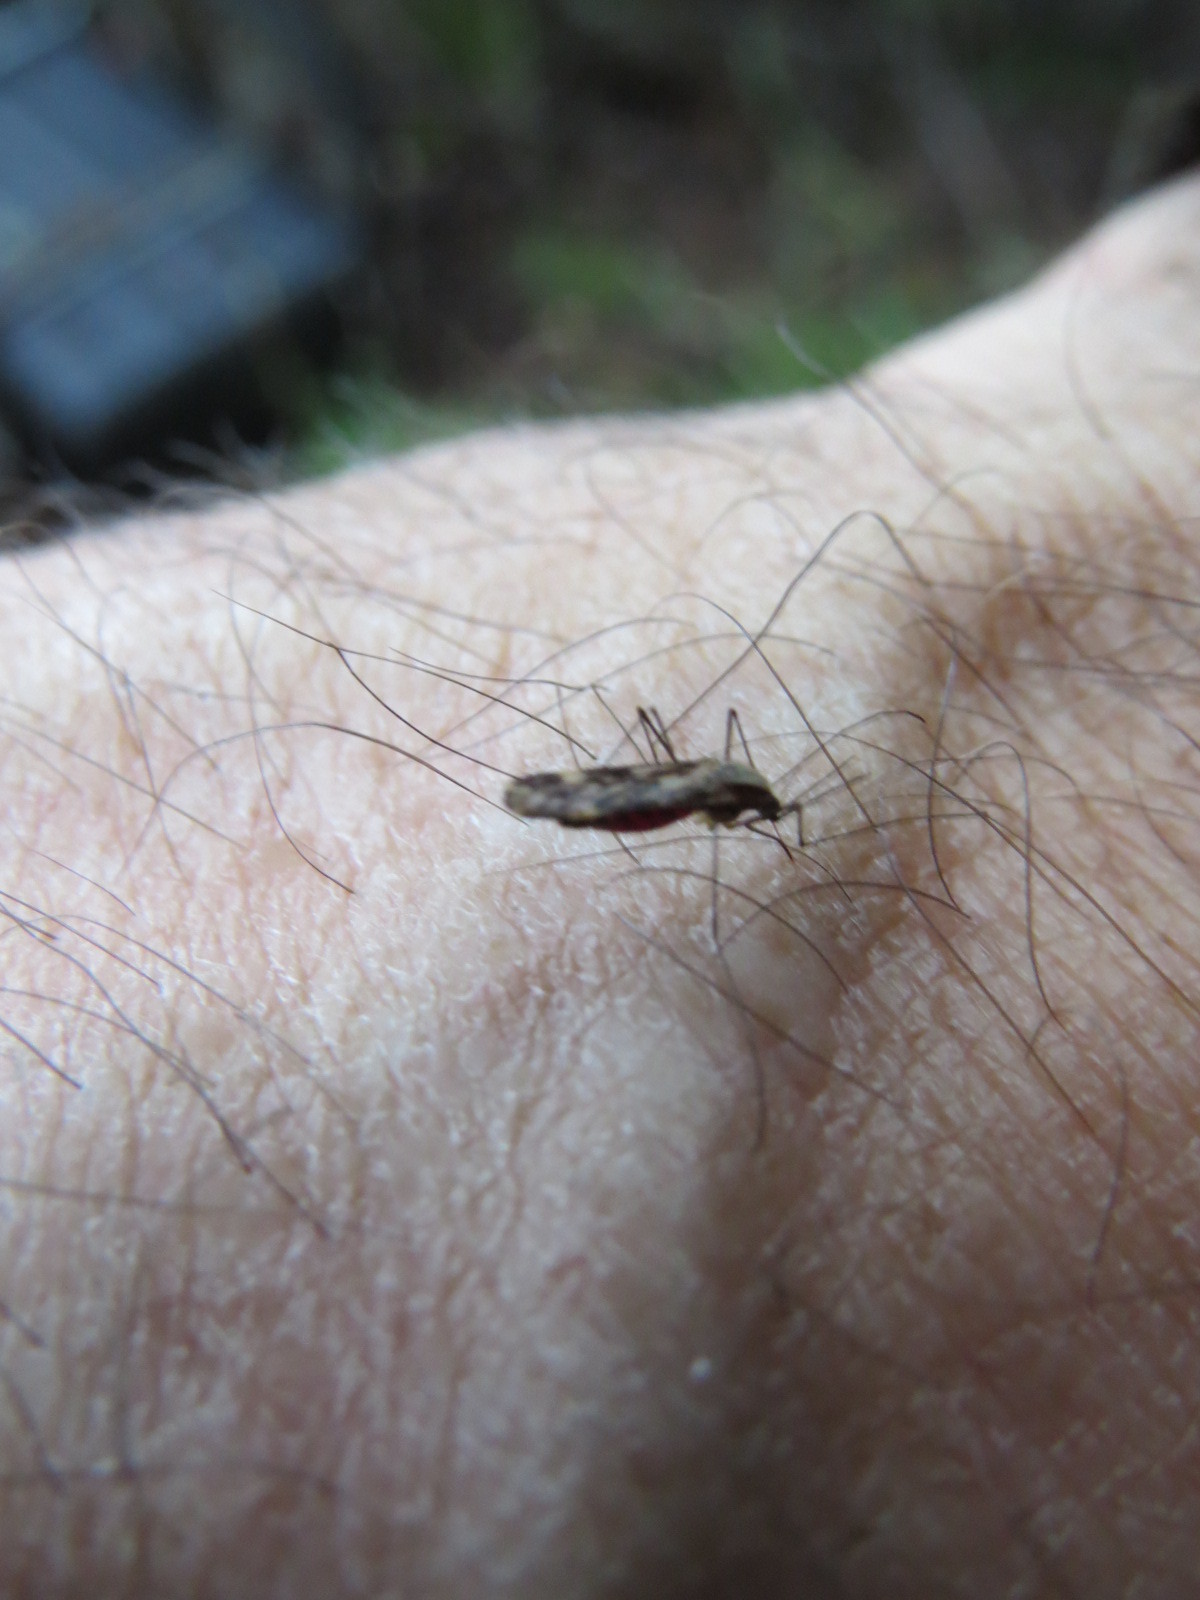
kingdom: Animalia
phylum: Arthropoda
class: Insecta
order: Diptera
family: Culicidae
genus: Anopheles
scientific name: Anopheles punctipennis
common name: Woodland malaria mosquito
